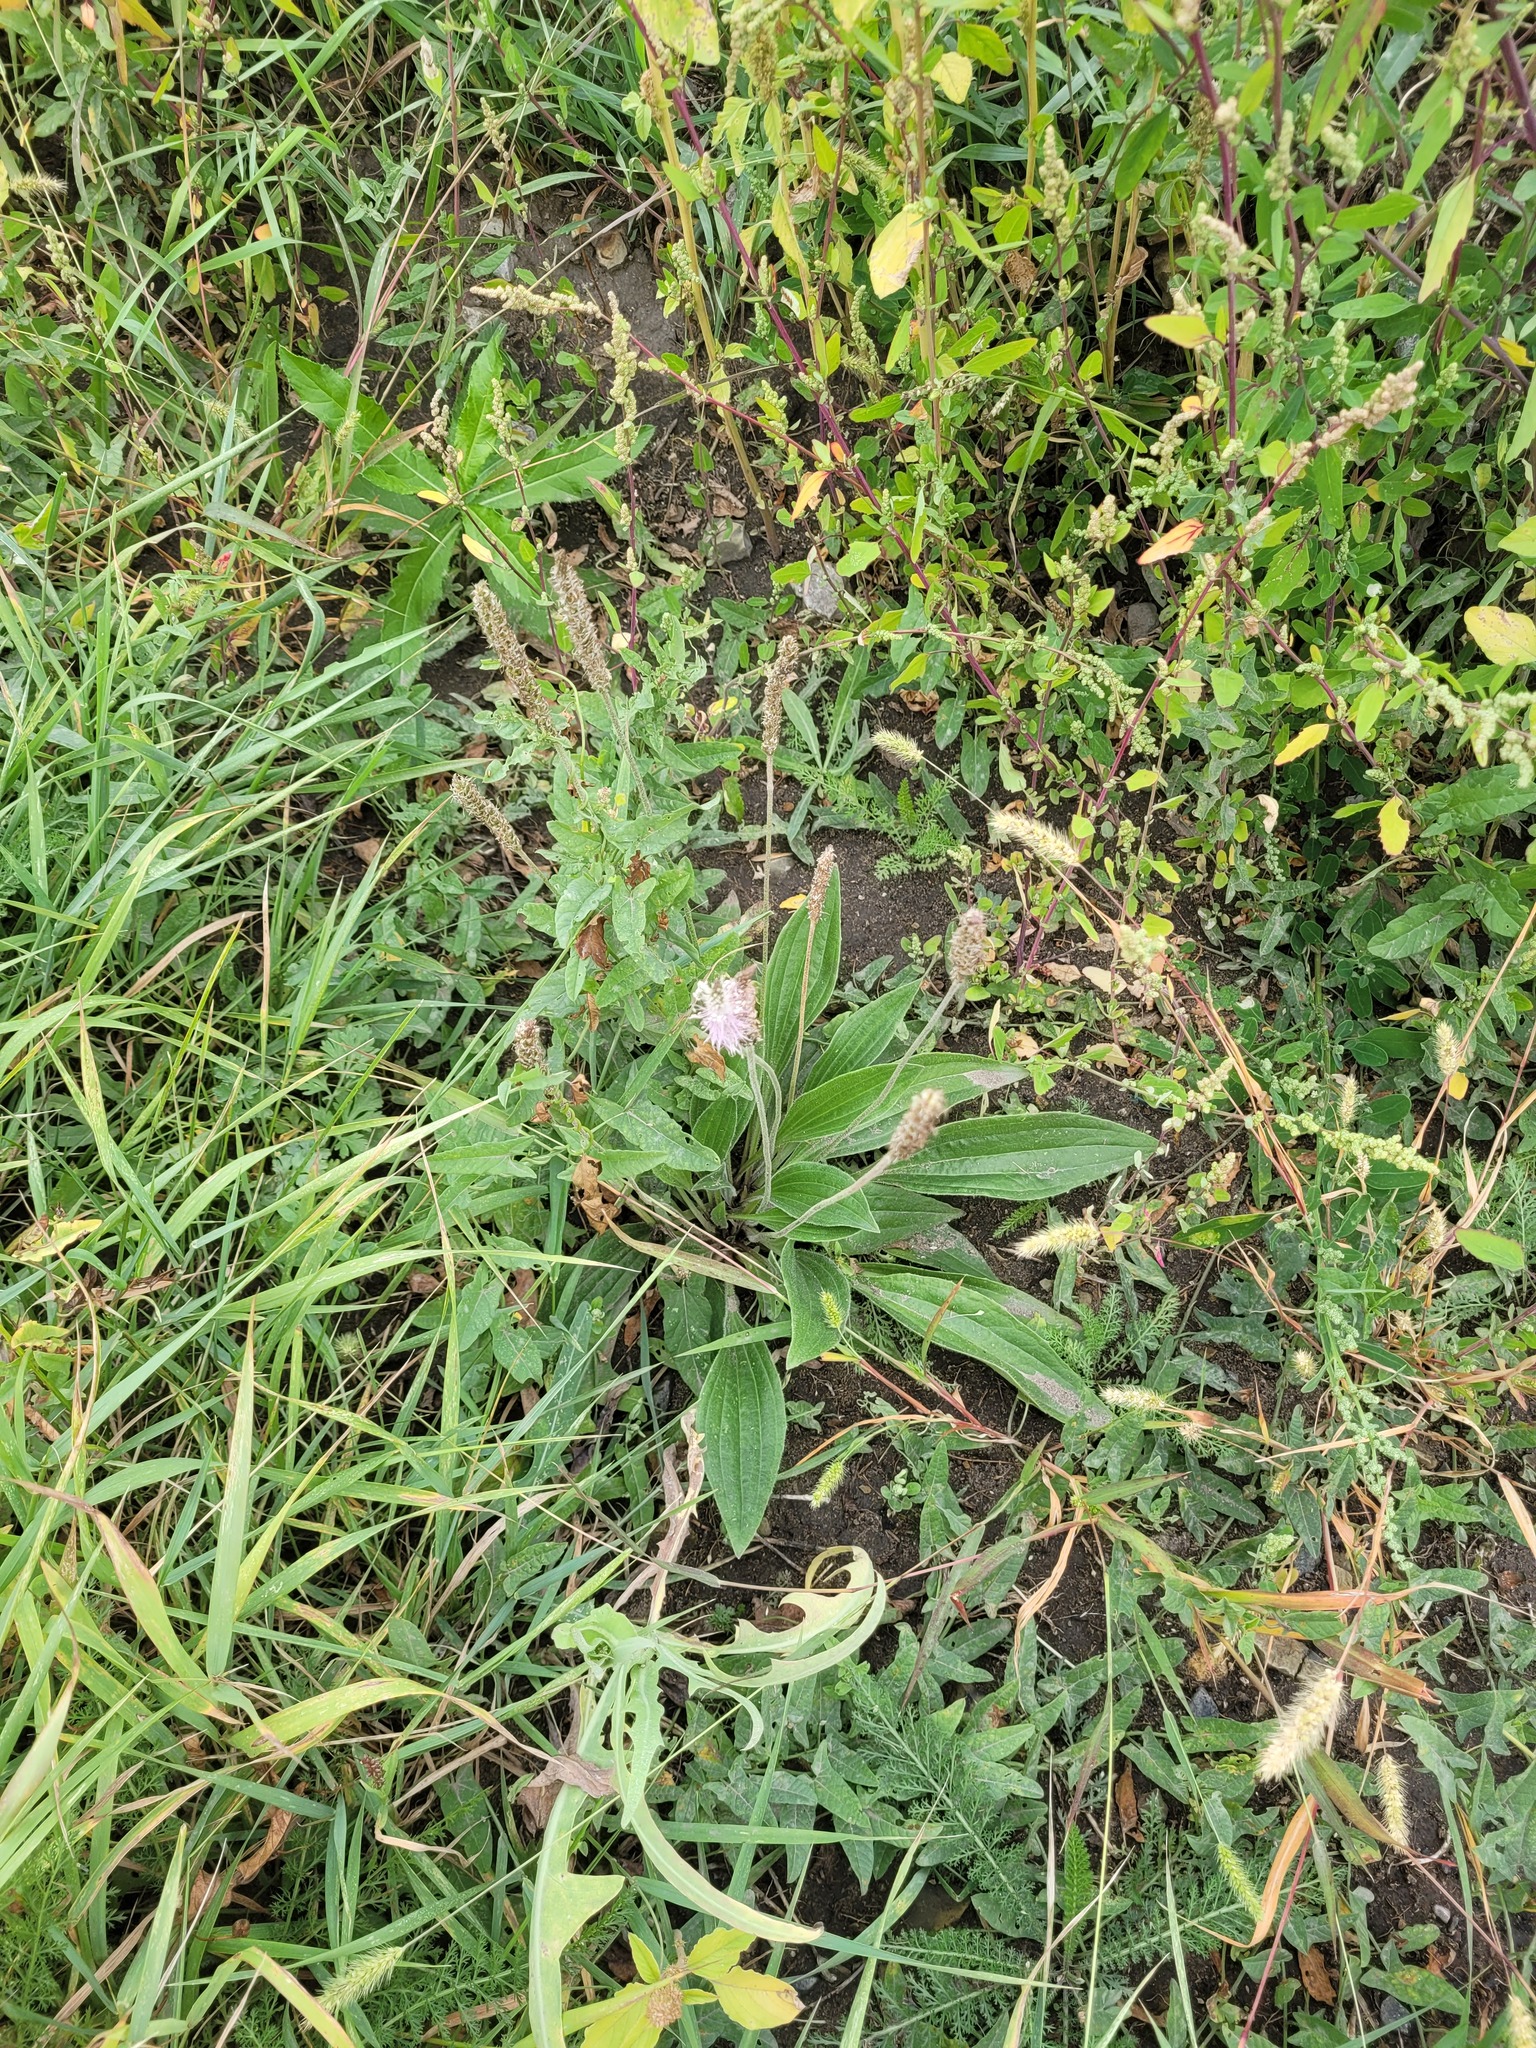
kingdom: Plantae
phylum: Tracheophyta
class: Magnoliopsida
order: Lamiales
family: Plantaginaceae
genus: Plantago
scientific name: Plantago urvillei
